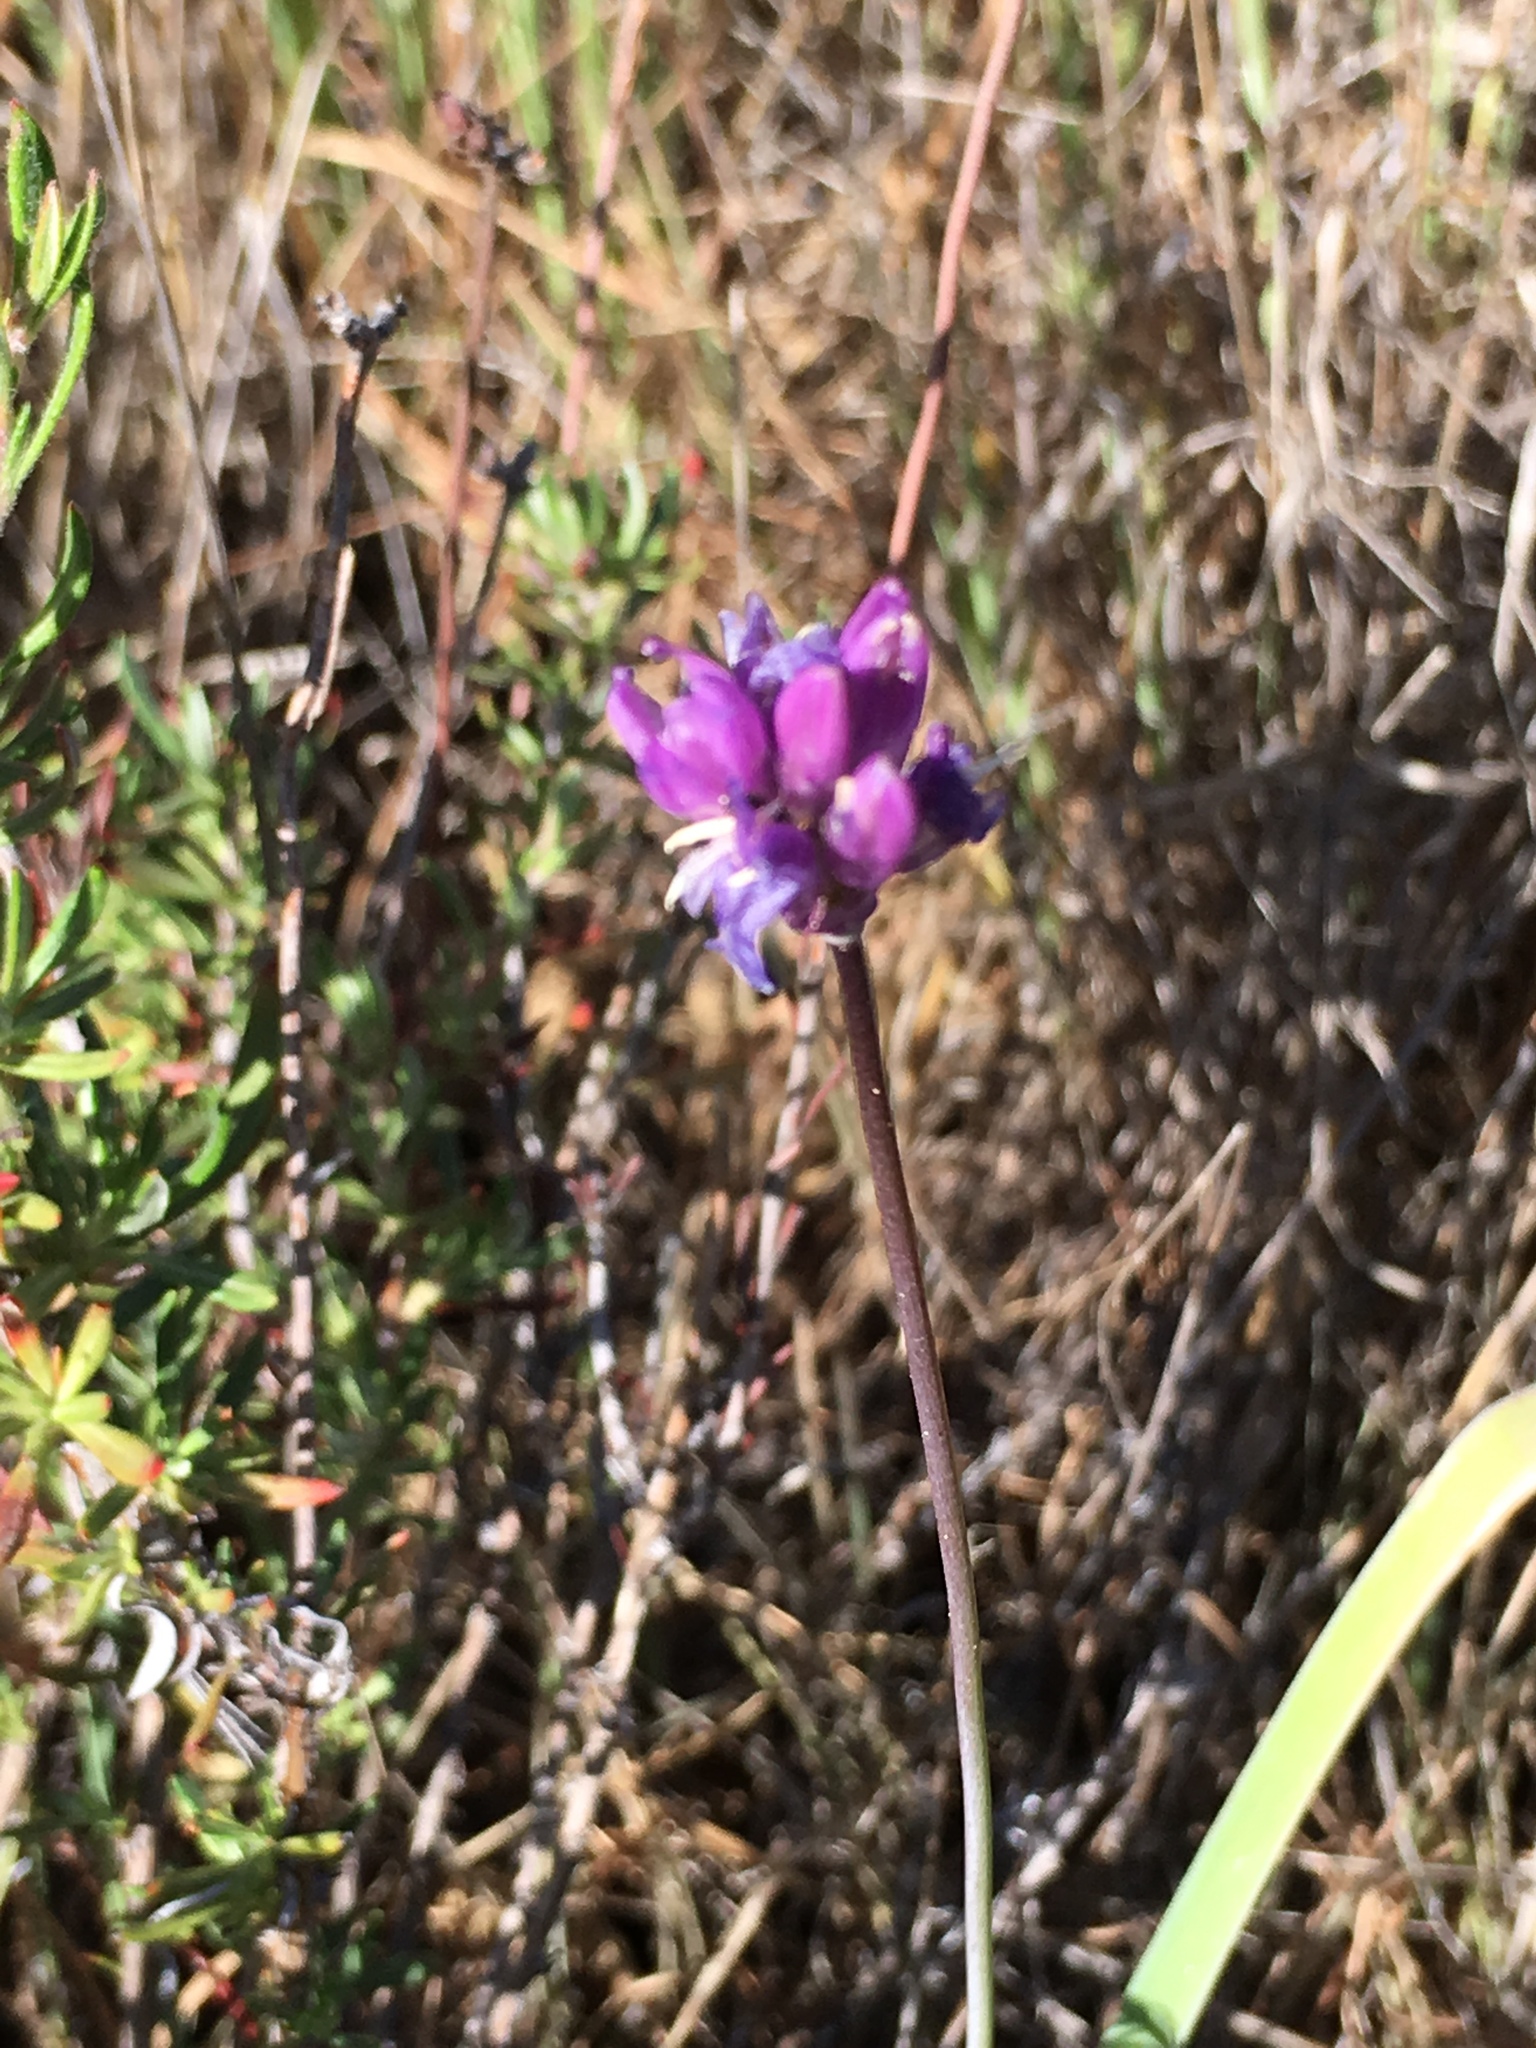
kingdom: Plantae
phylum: Tracheophyta
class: Liliopsida
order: Asparagales
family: Asparagaceae
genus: Dipterostemon
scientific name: Dipterostemon capitatus
